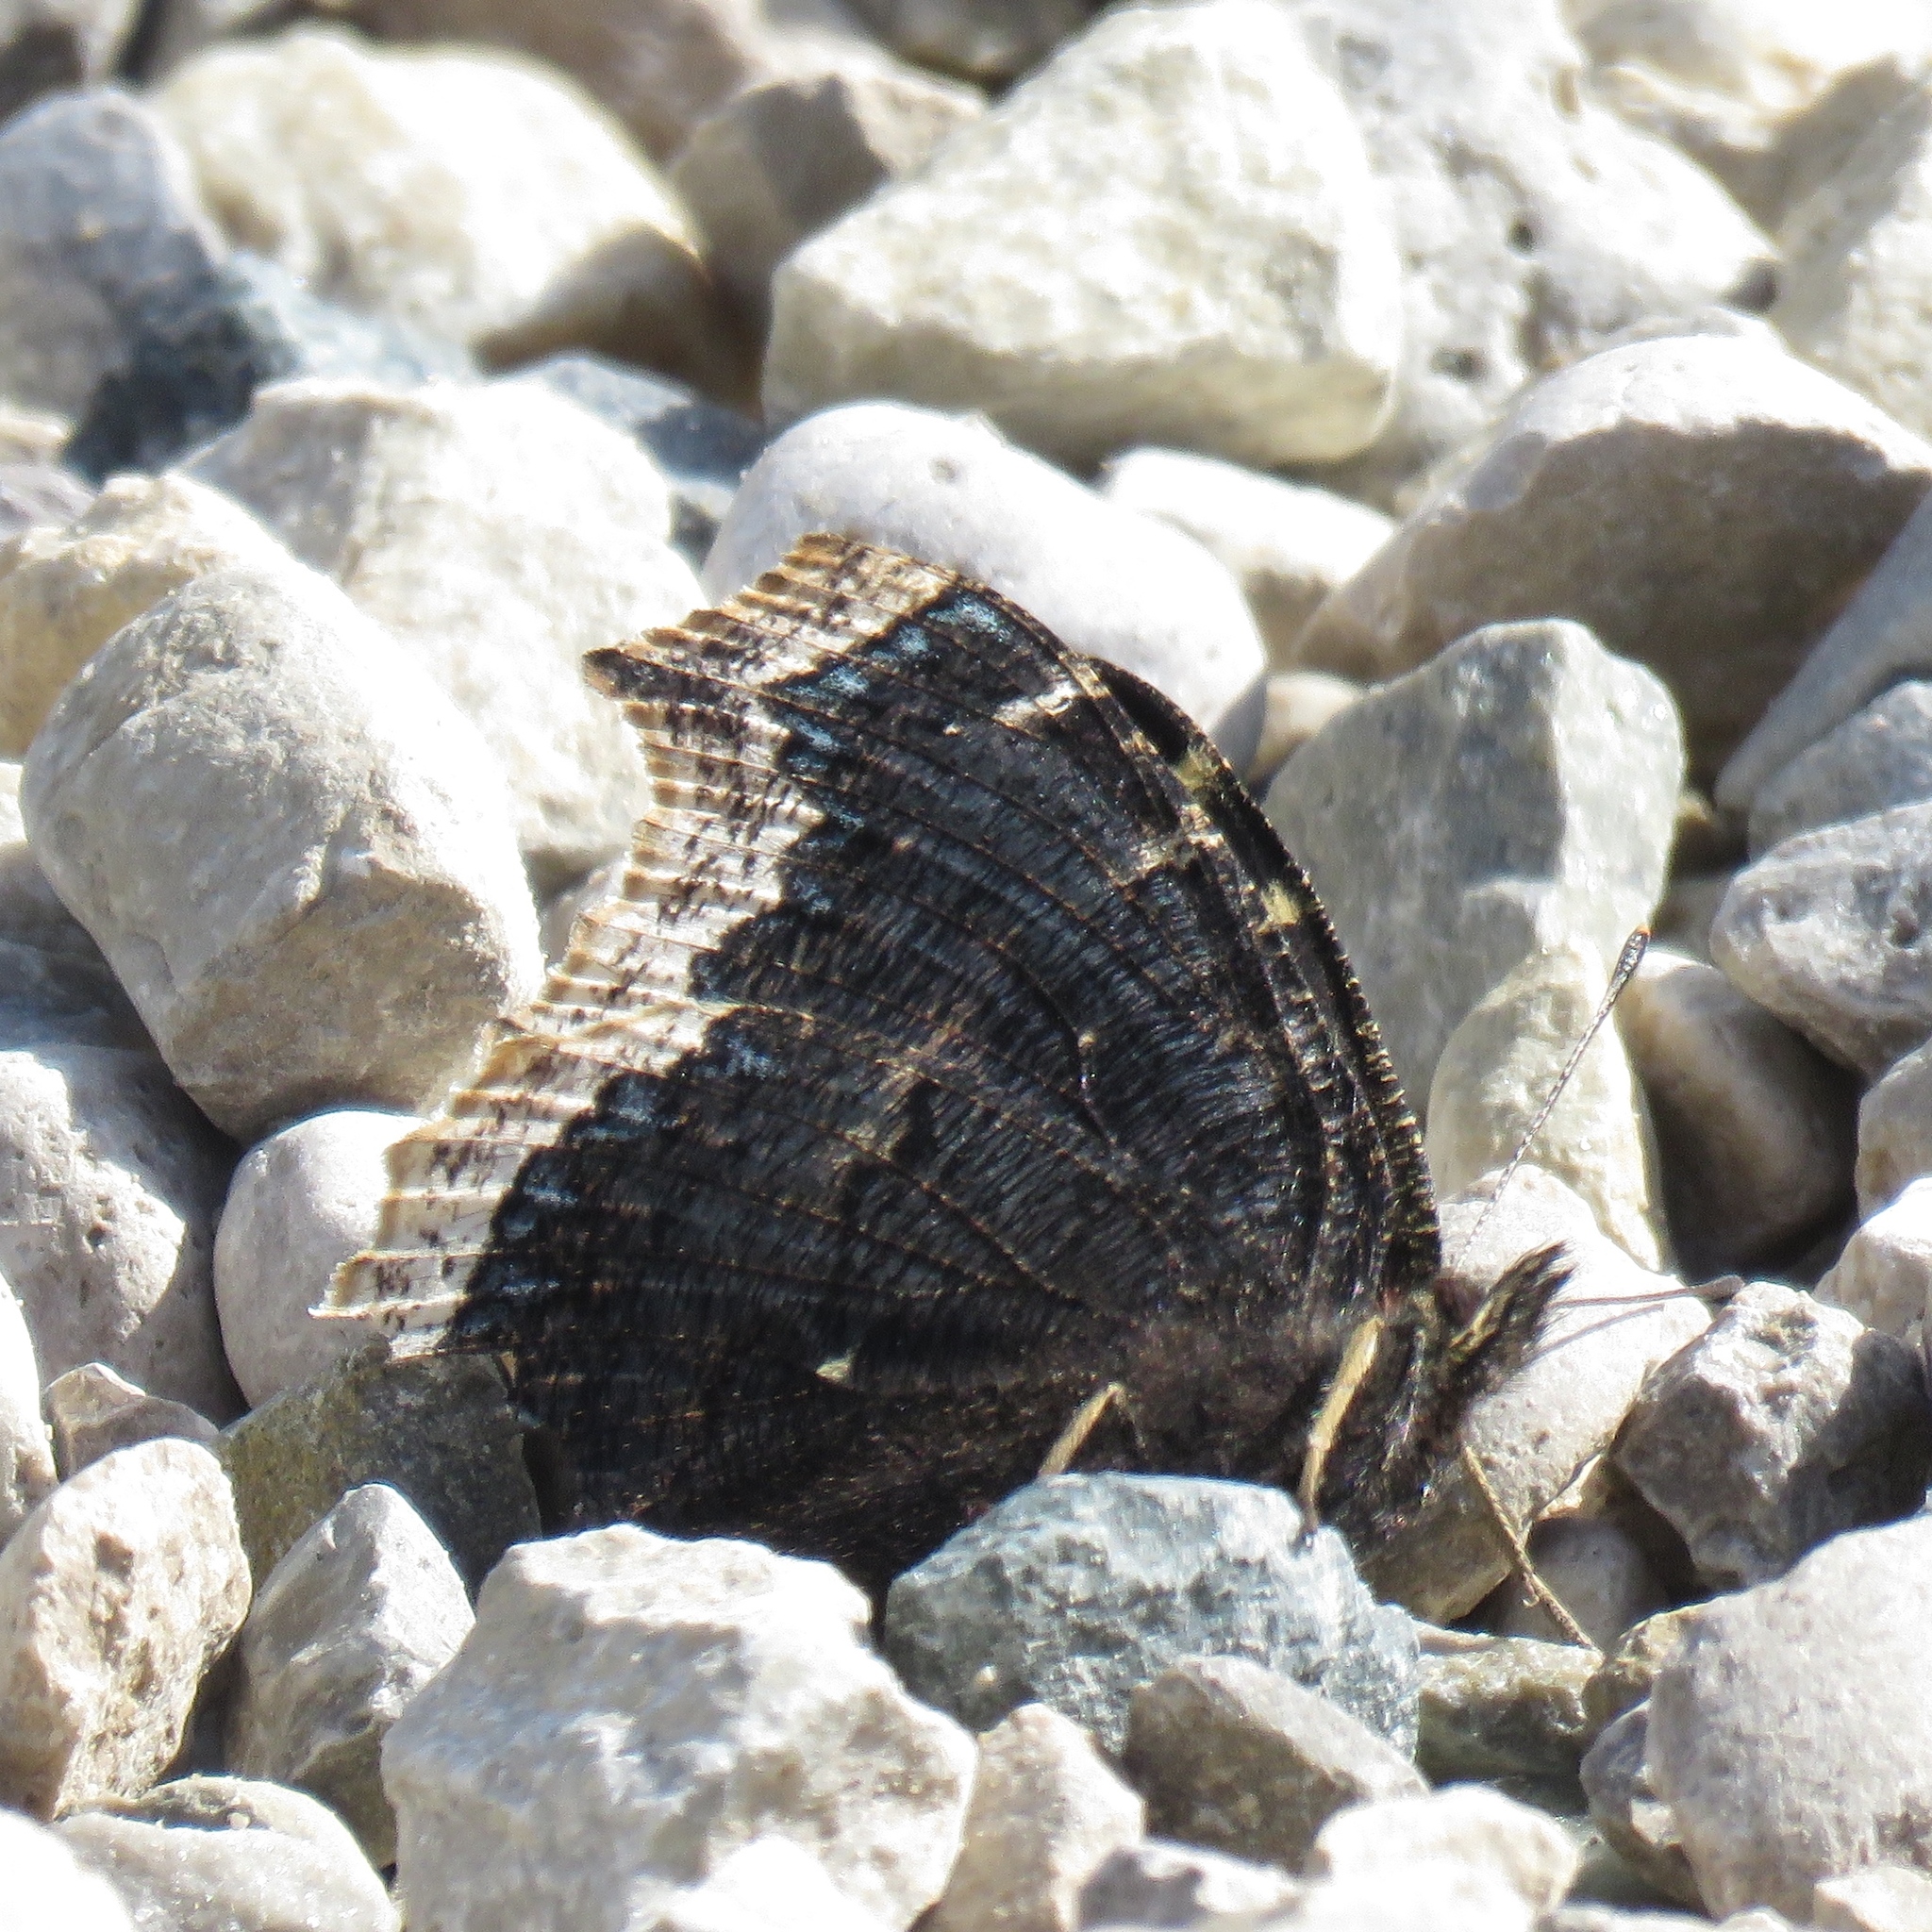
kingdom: Animalia
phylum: Arthropoda
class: Insecta
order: Lepidoptera
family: Nymphalidae
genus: Nymphalis
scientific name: Nymphalis antiopa
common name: Camberwell beauty
